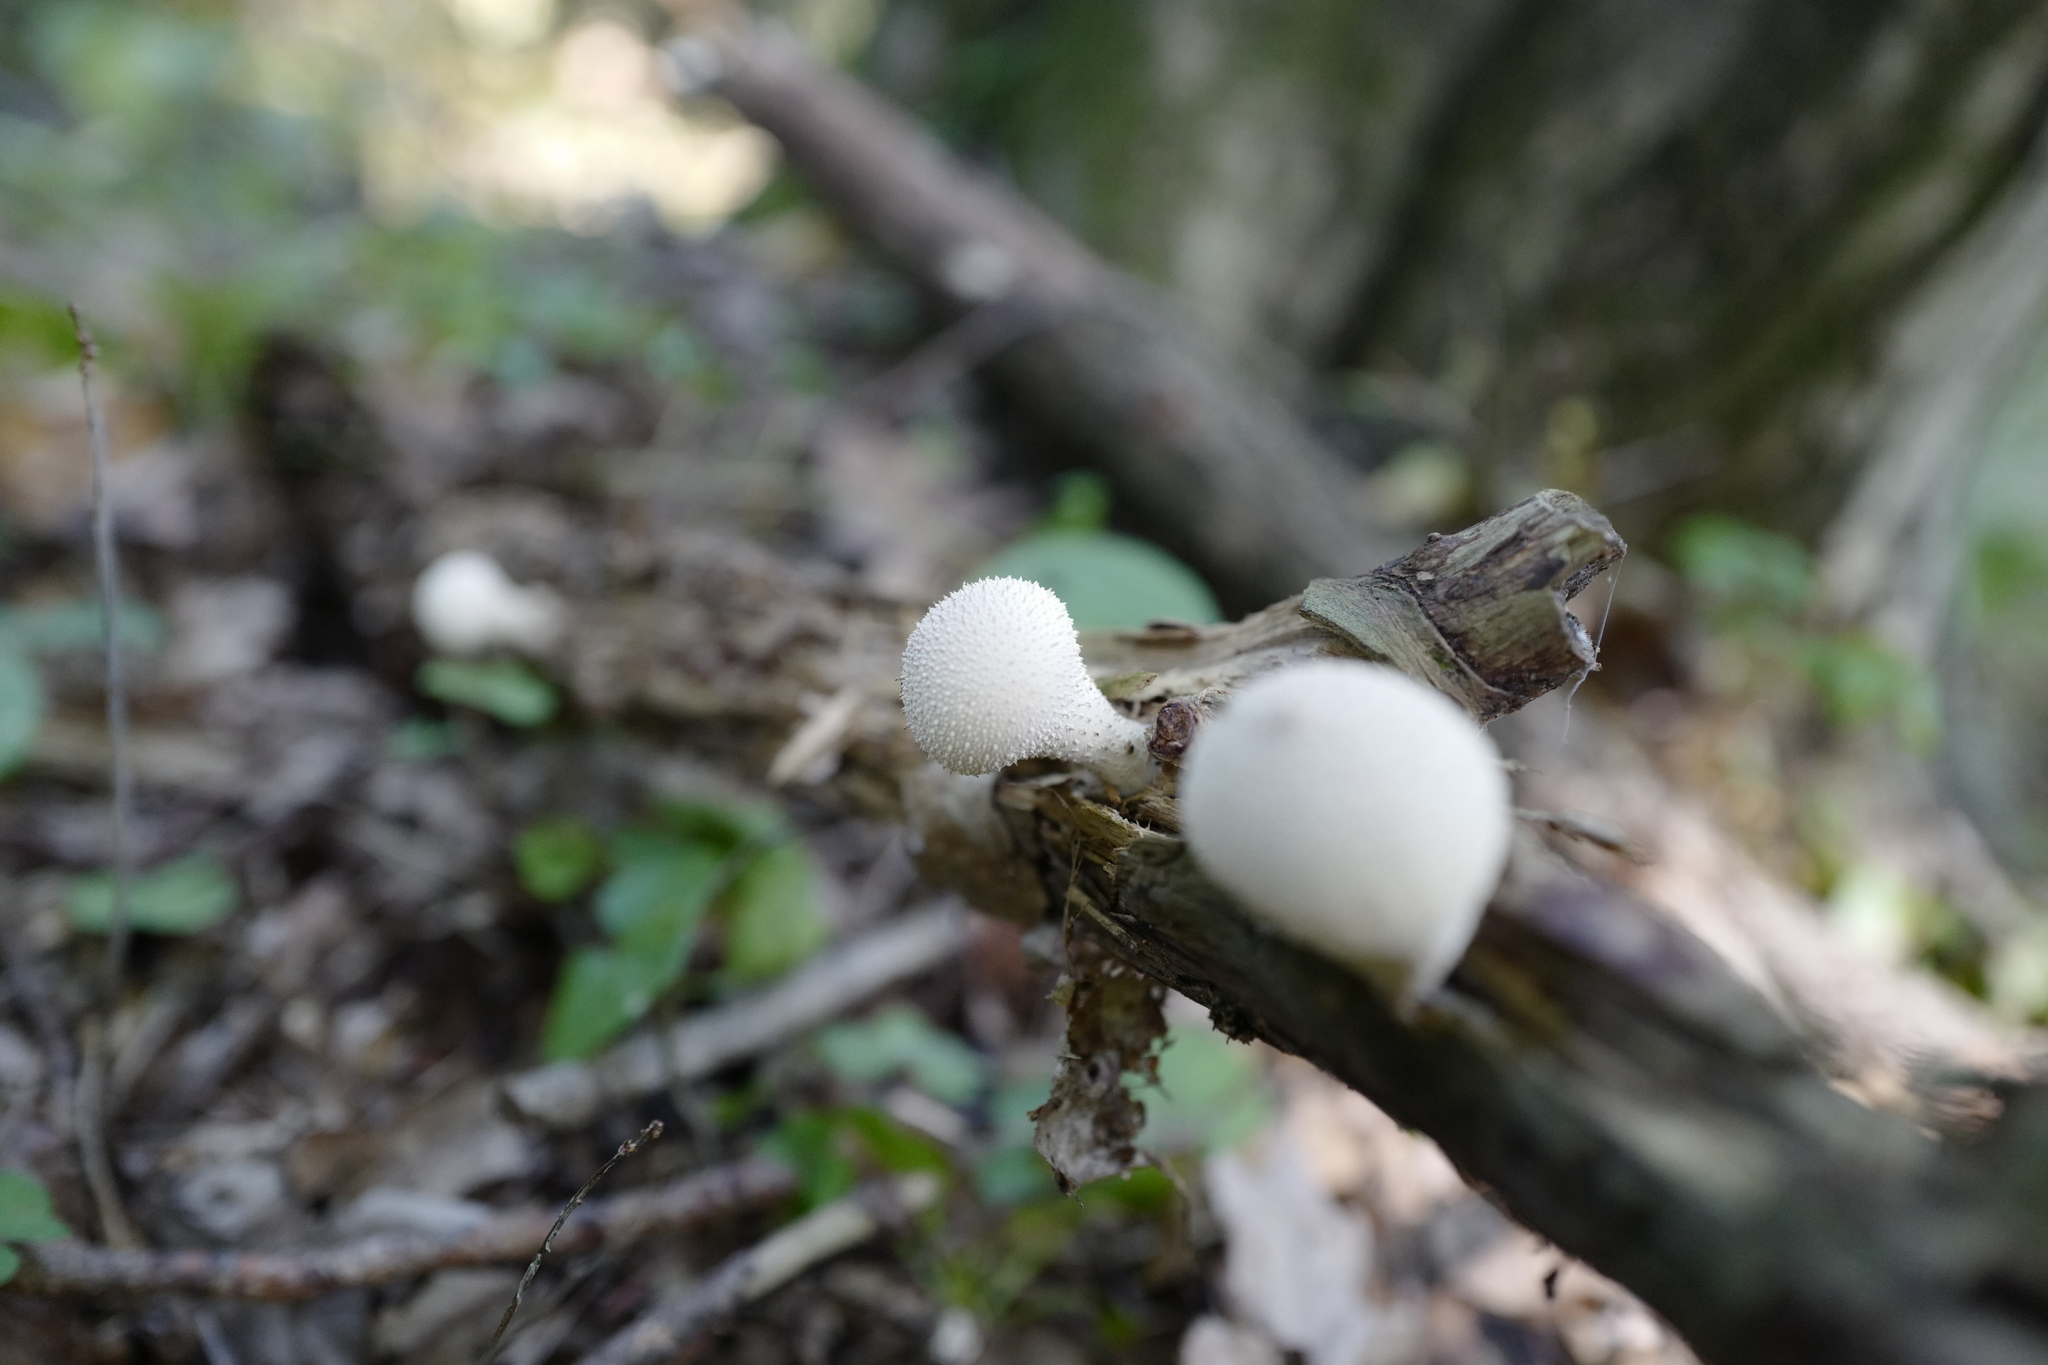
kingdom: Fungi
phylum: Basidiomycota
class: Agaricomycetes
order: Agaricales
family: Lycoperdaceae
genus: Apioperdon
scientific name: Apioperdon pyriforme
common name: Pear-shaped puffball
